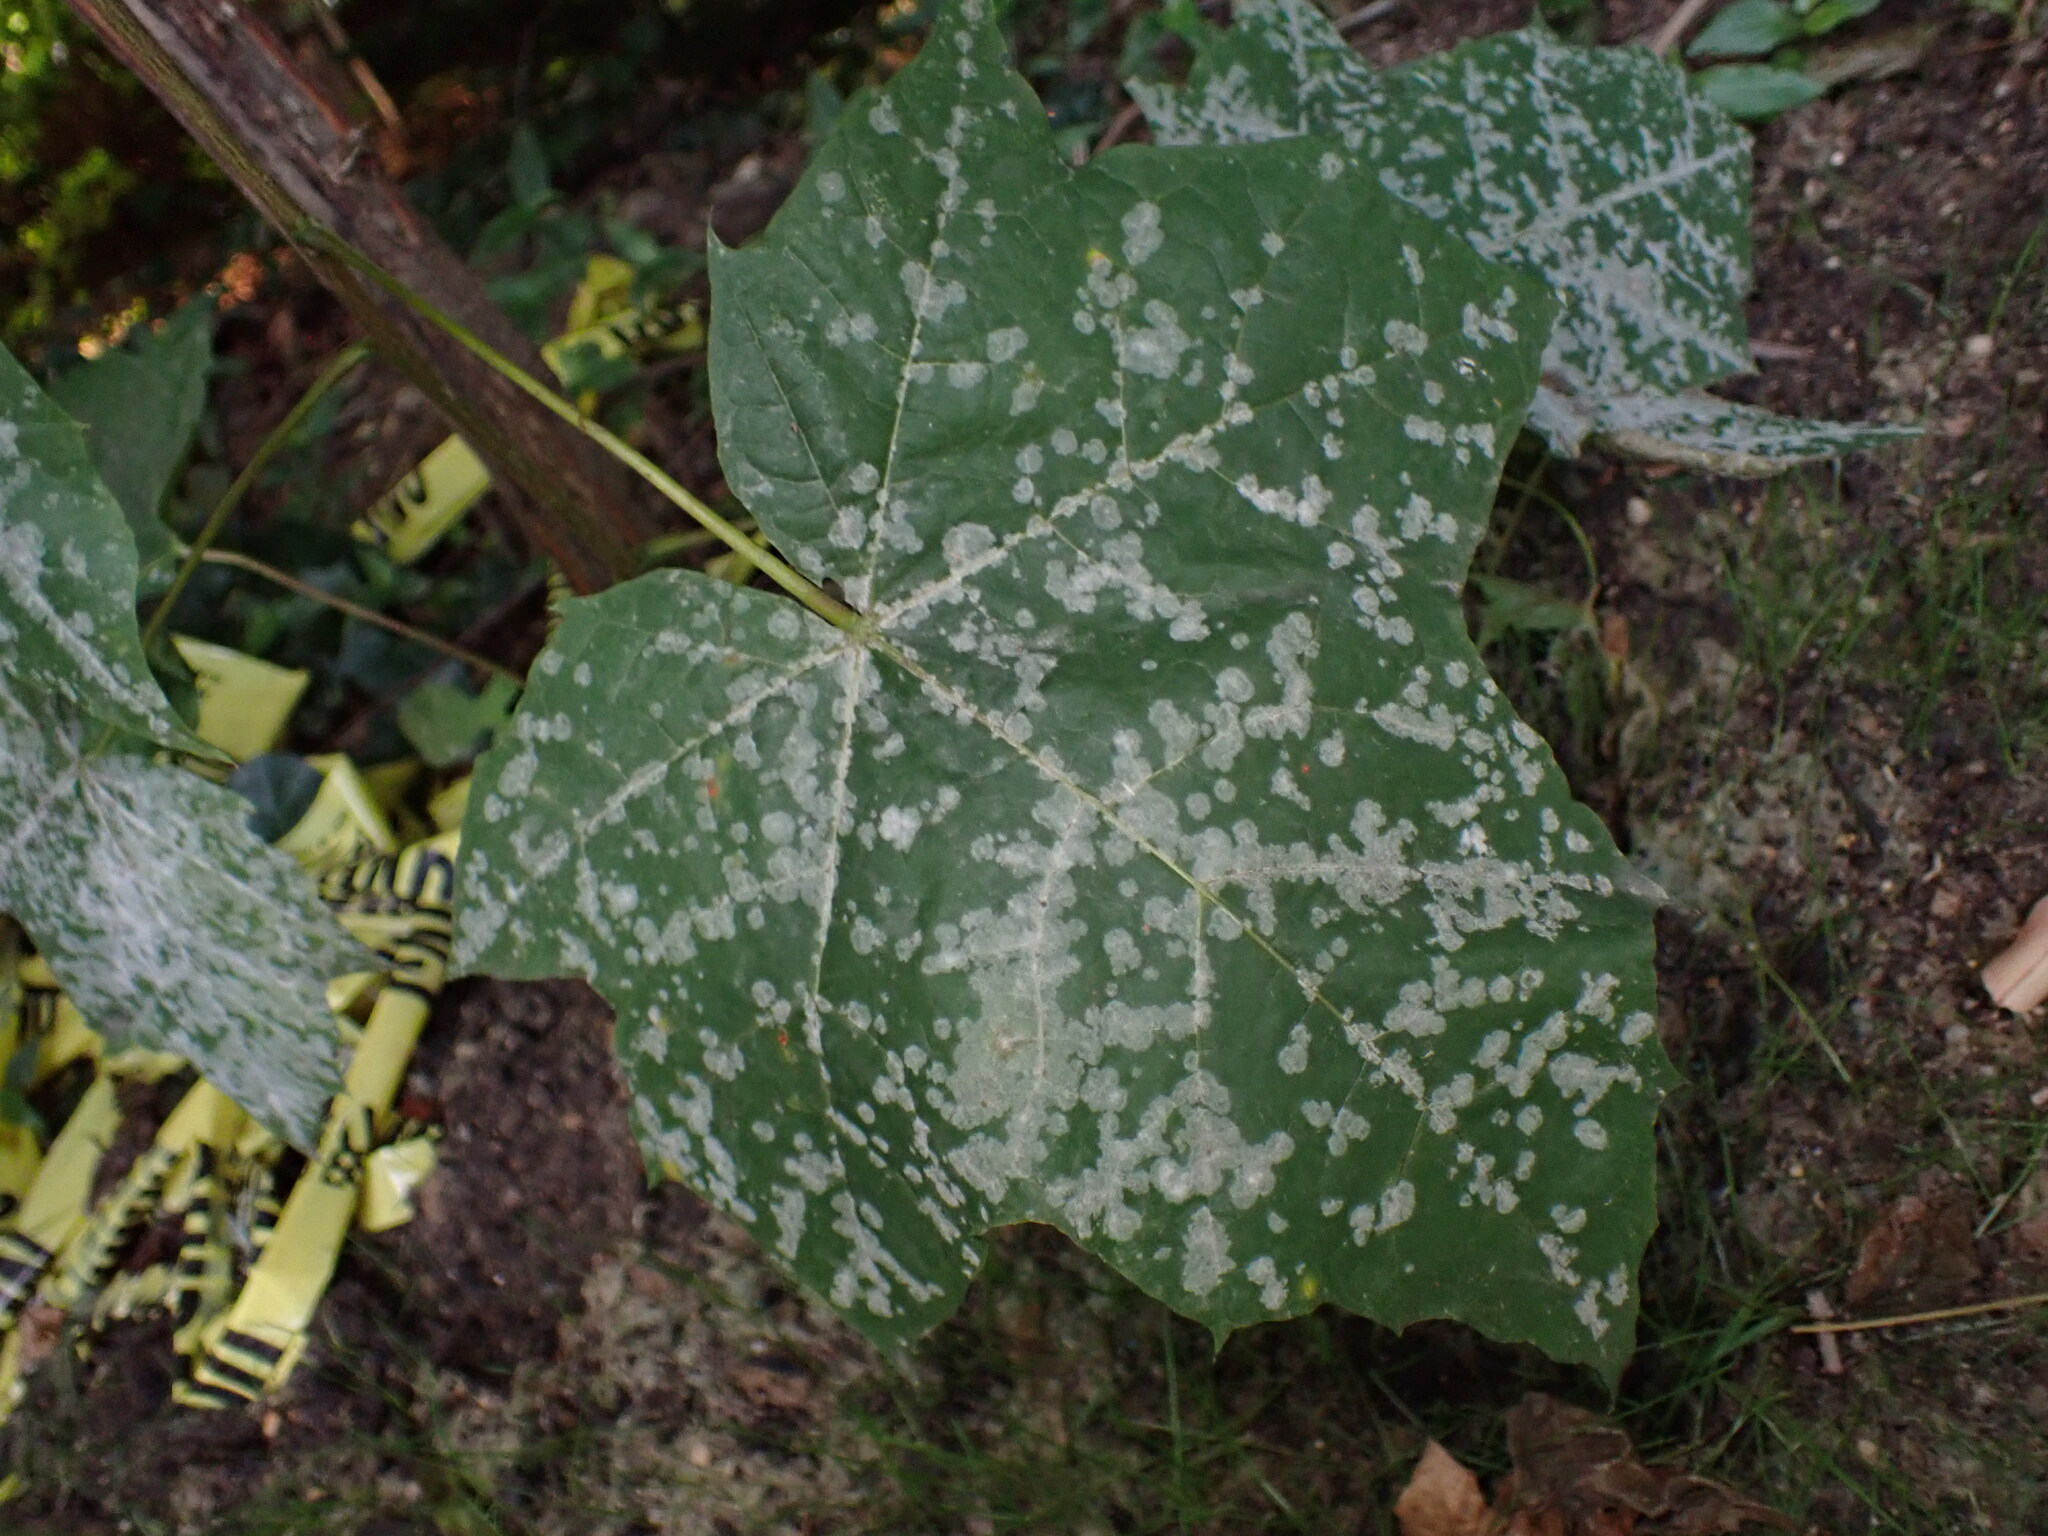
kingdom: Fungi
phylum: Ascomycota
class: Leotiomycetes
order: Helotiales
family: Erysiphaceae
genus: Sawadaea
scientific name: Sawadaea tulasnei
